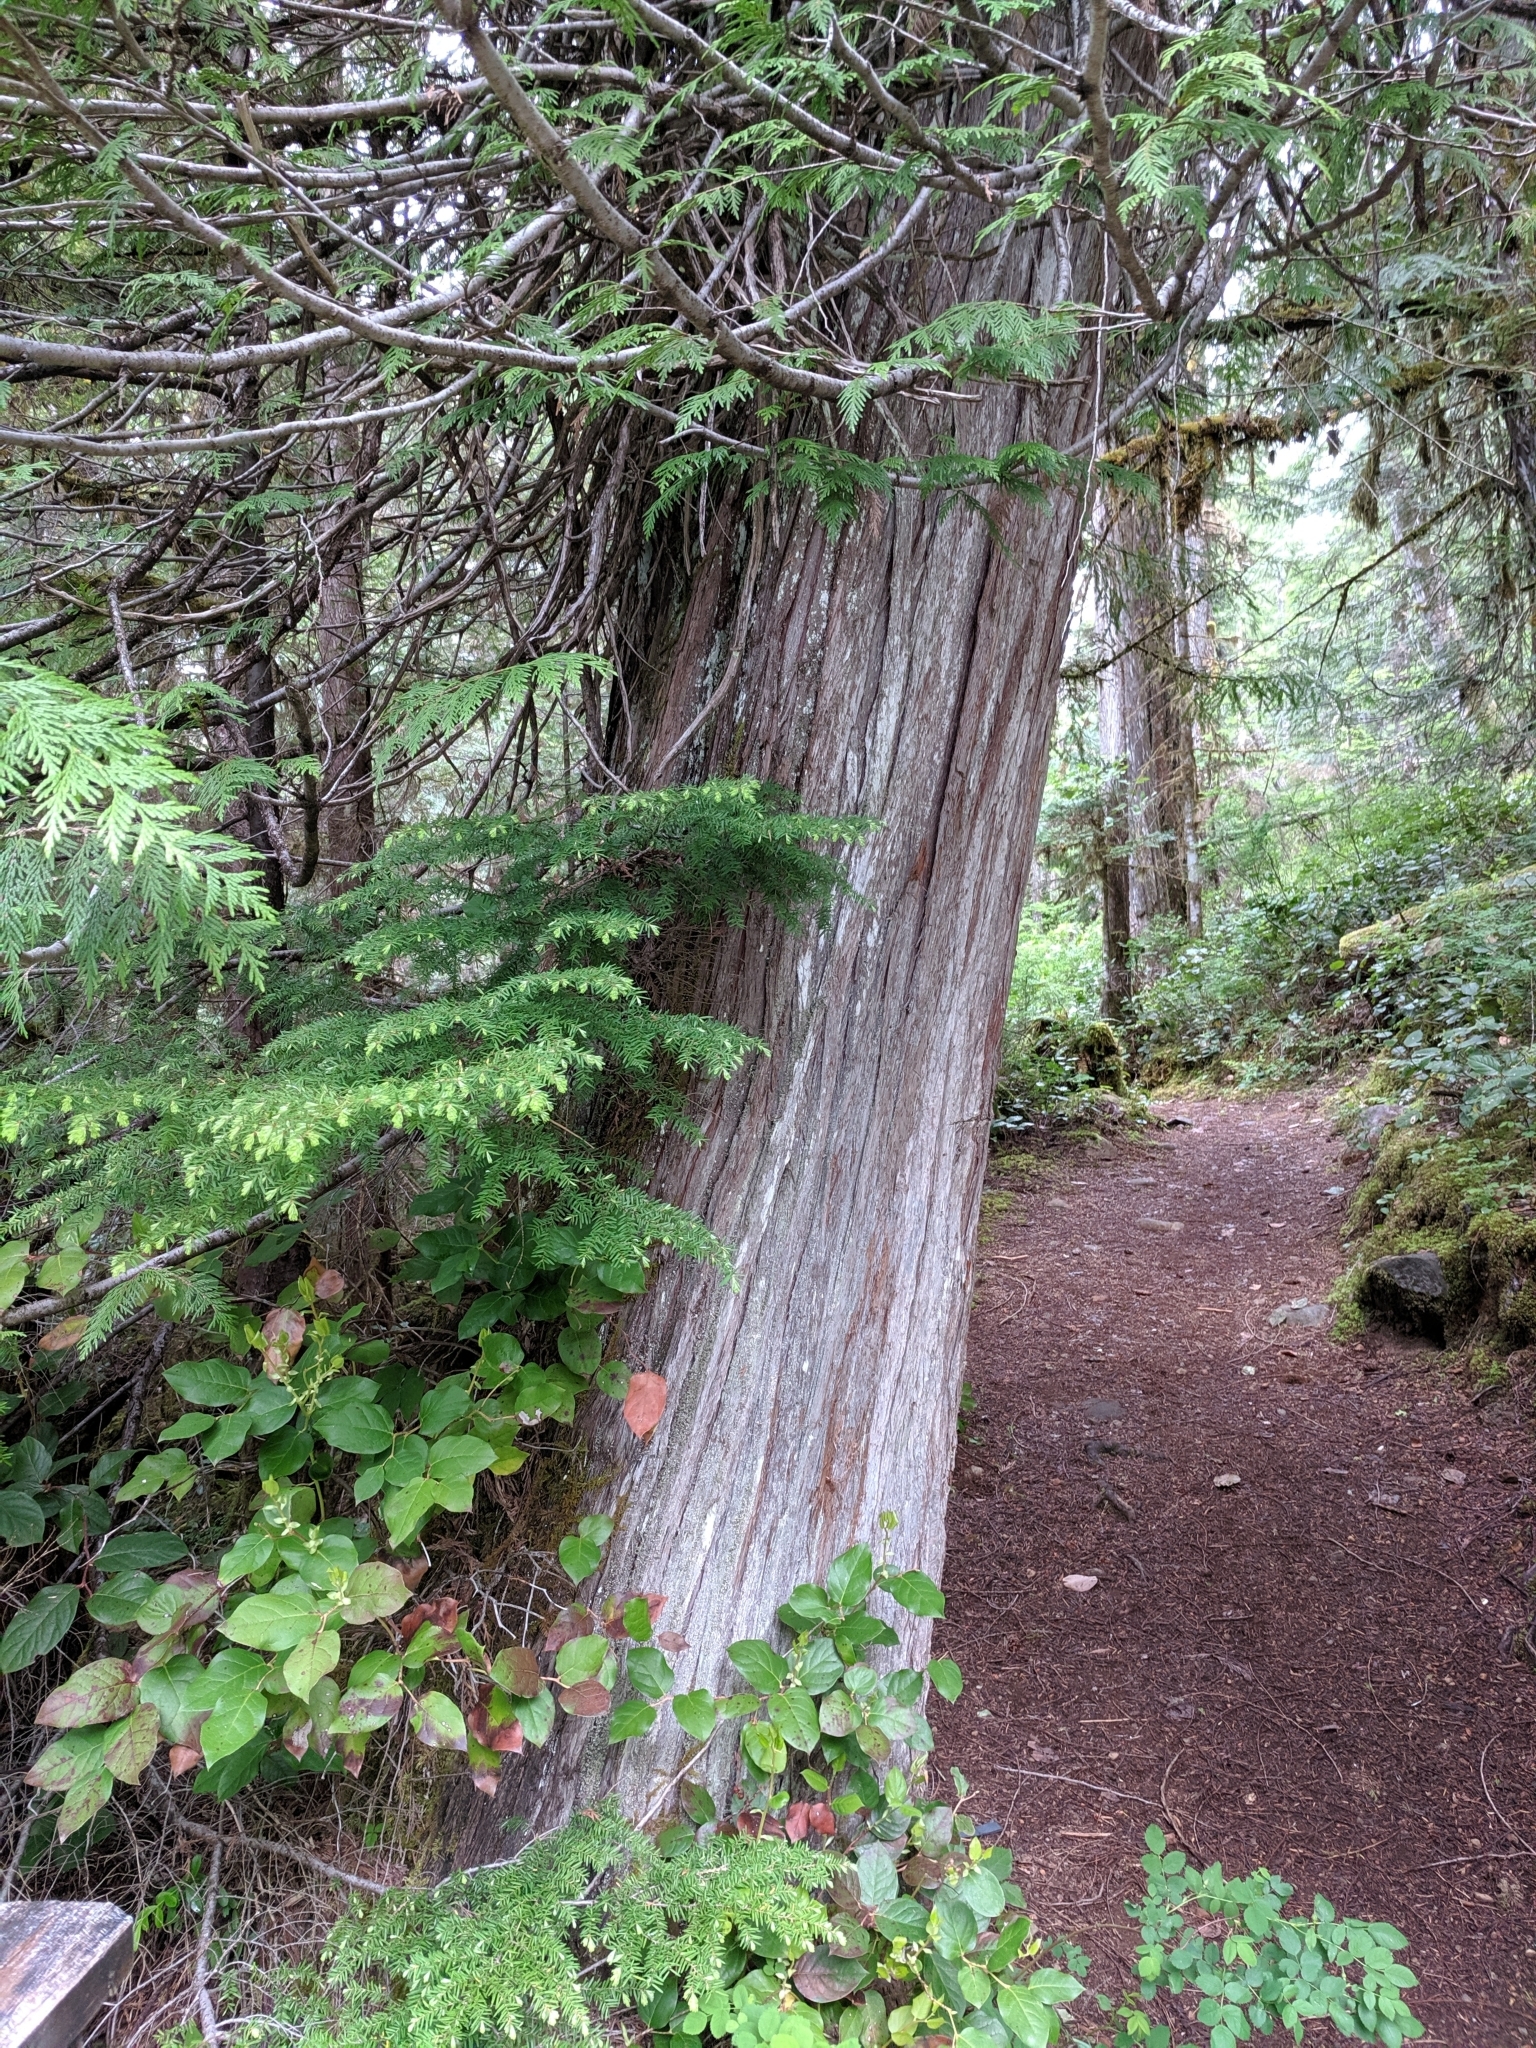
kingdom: Plantae
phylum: Tracheophyta
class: Pinopsida
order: Pinales
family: Cupressaceae
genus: Thuja
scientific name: Thuja plicata
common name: Western red-cedar
